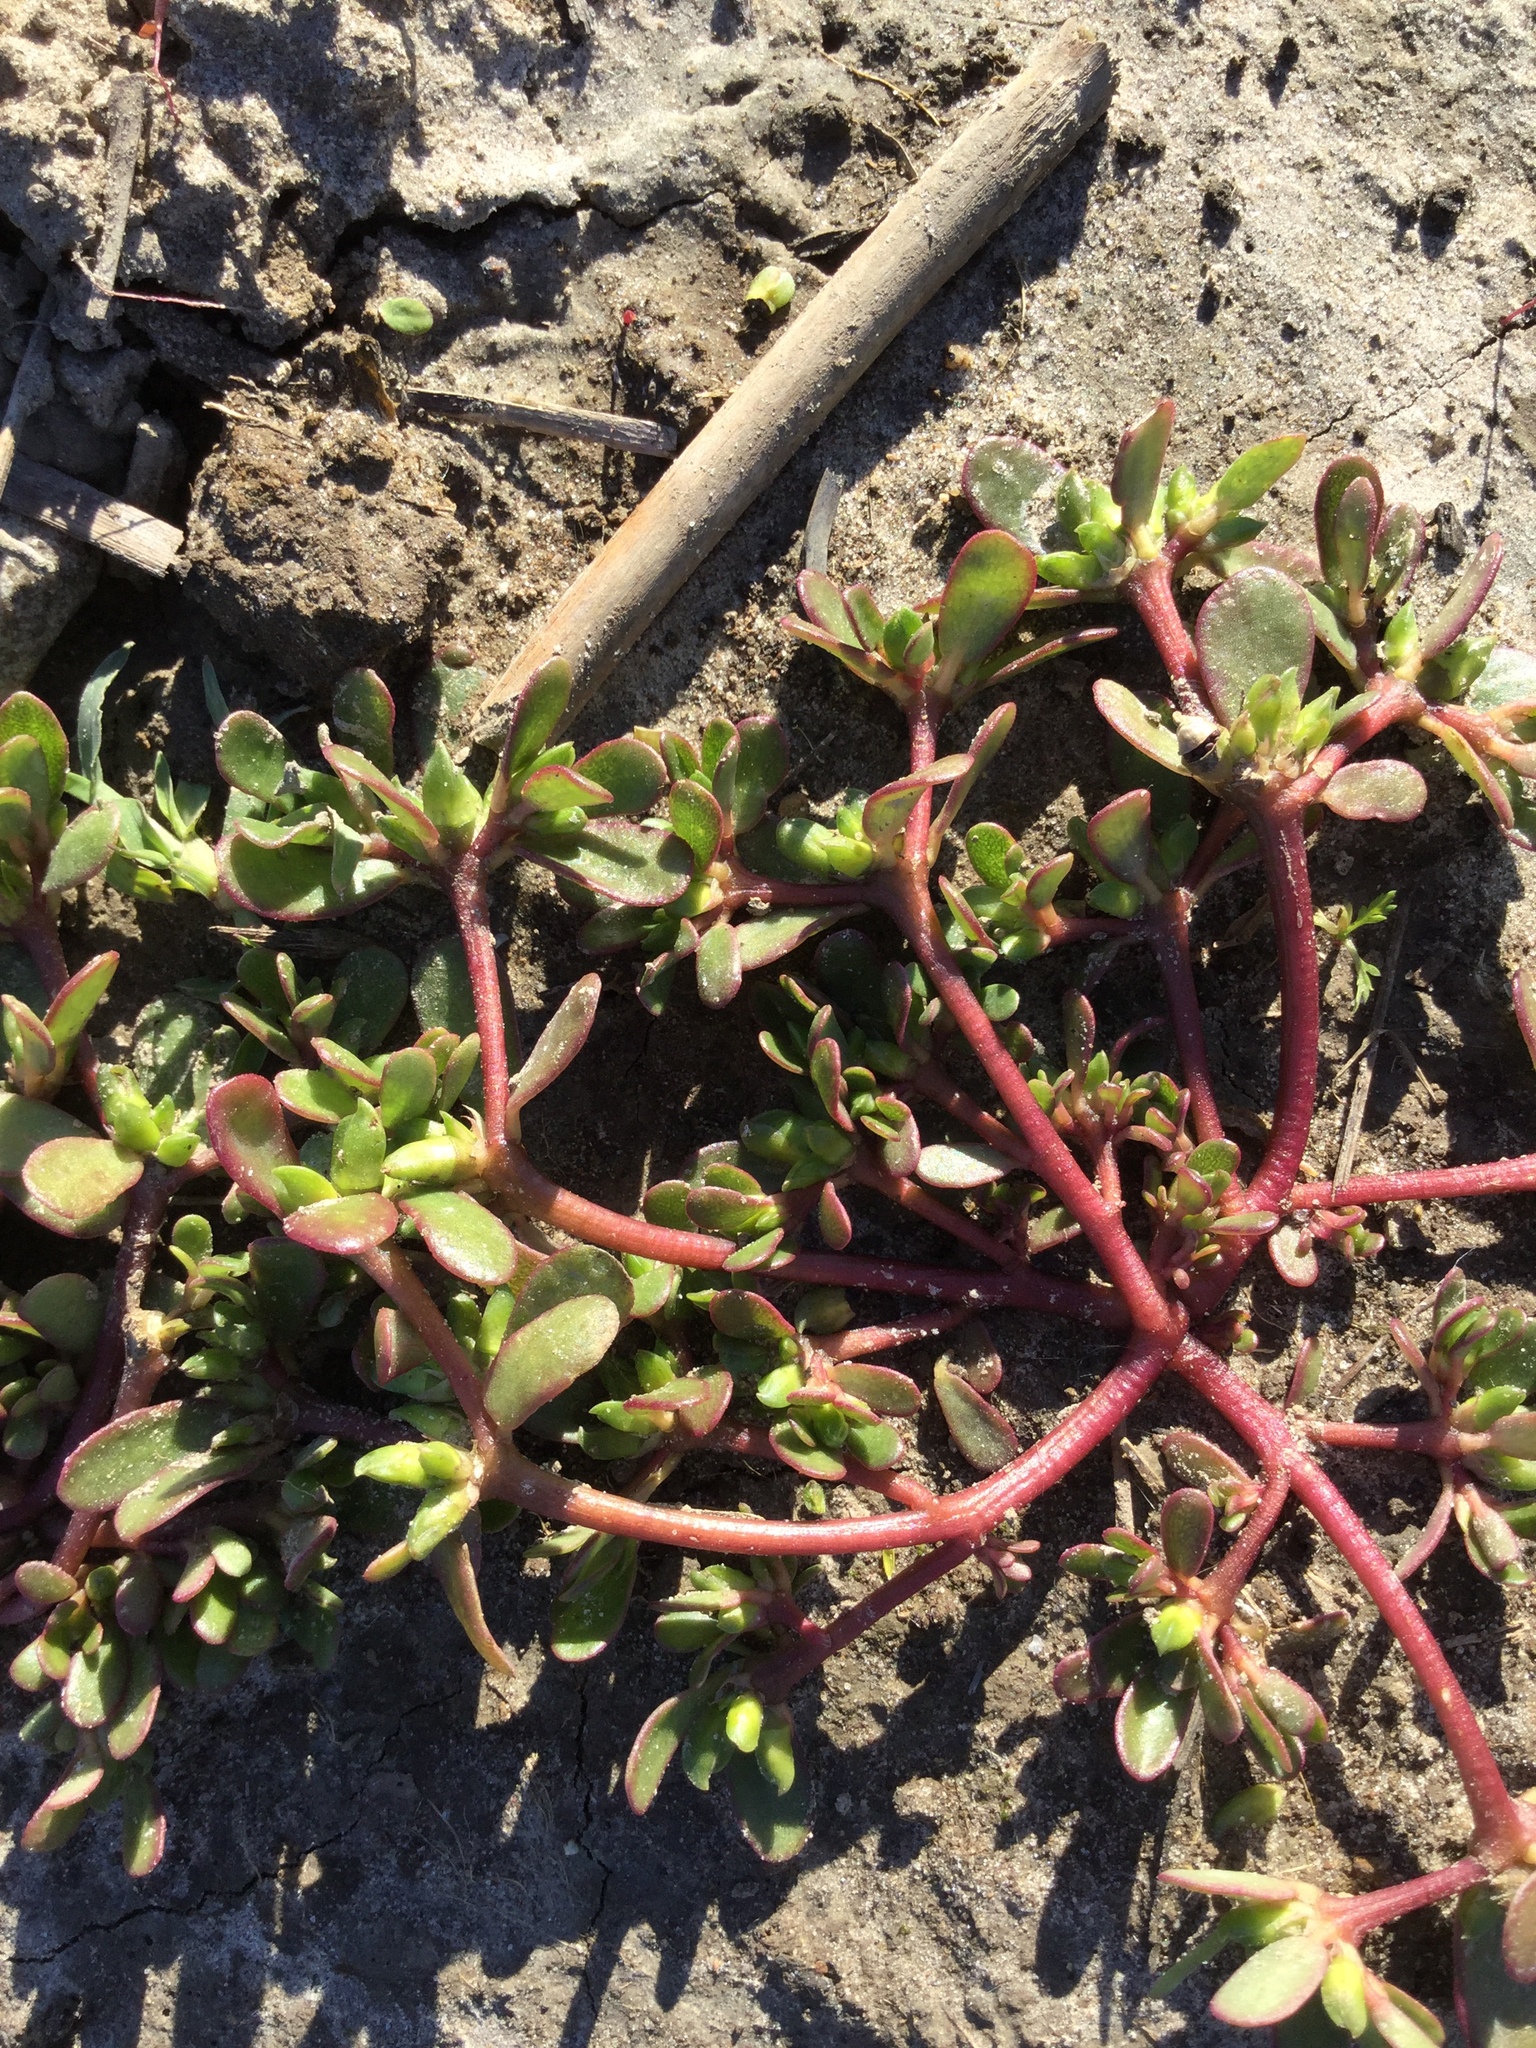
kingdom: Plantae
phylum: Tracheophyta
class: Magnoliopsida
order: Caryophyllales
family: Portulacaceae
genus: Portulaca
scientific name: Portulaca oleracea
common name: Common purslane
